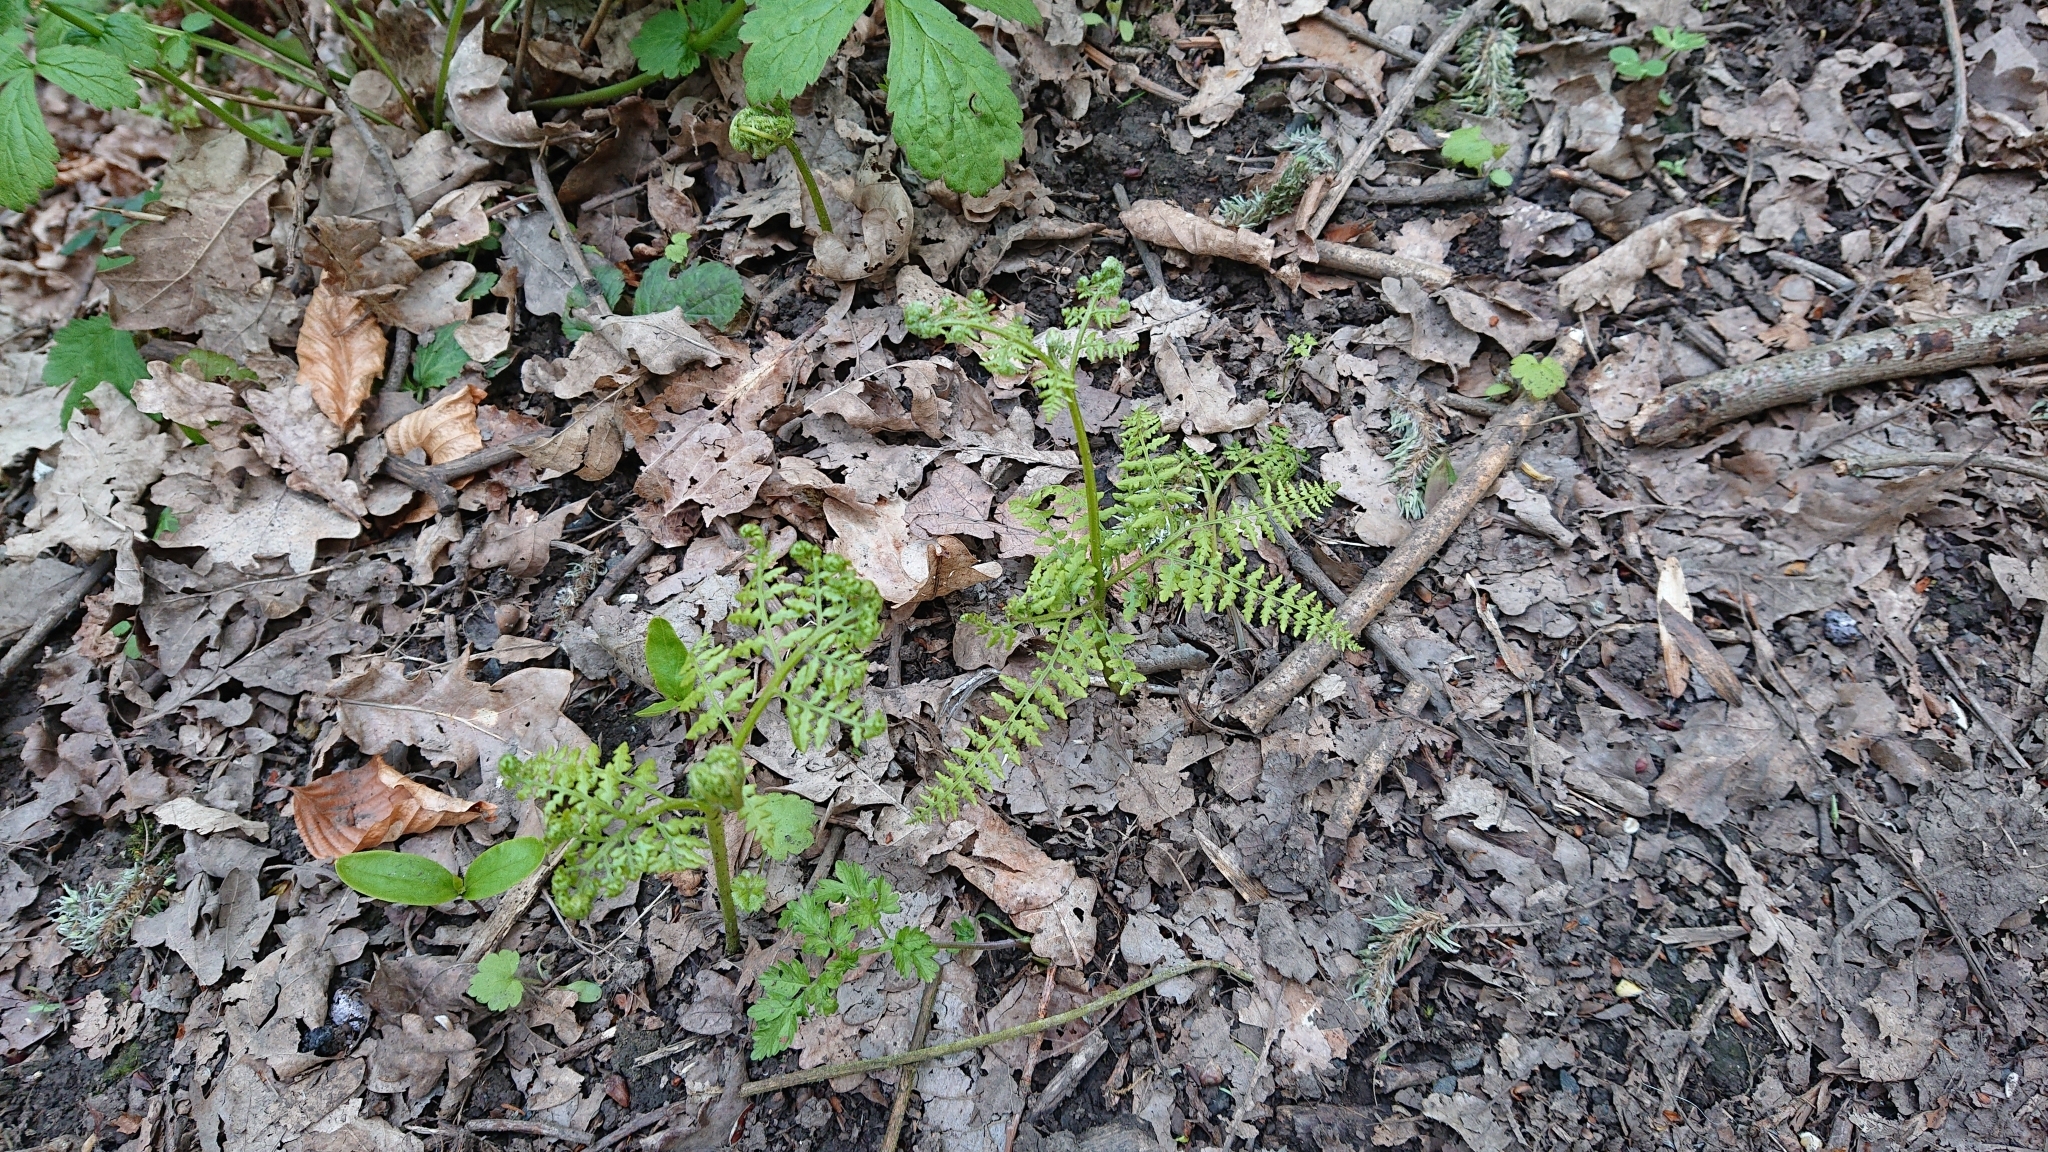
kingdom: Plantae
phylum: Tracheophyta
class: Polypodiopsida
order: Polypodiales
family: Dennstaedtiaceae
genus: Pteridium
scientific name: Pteridium aquilinum
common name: Bracken
